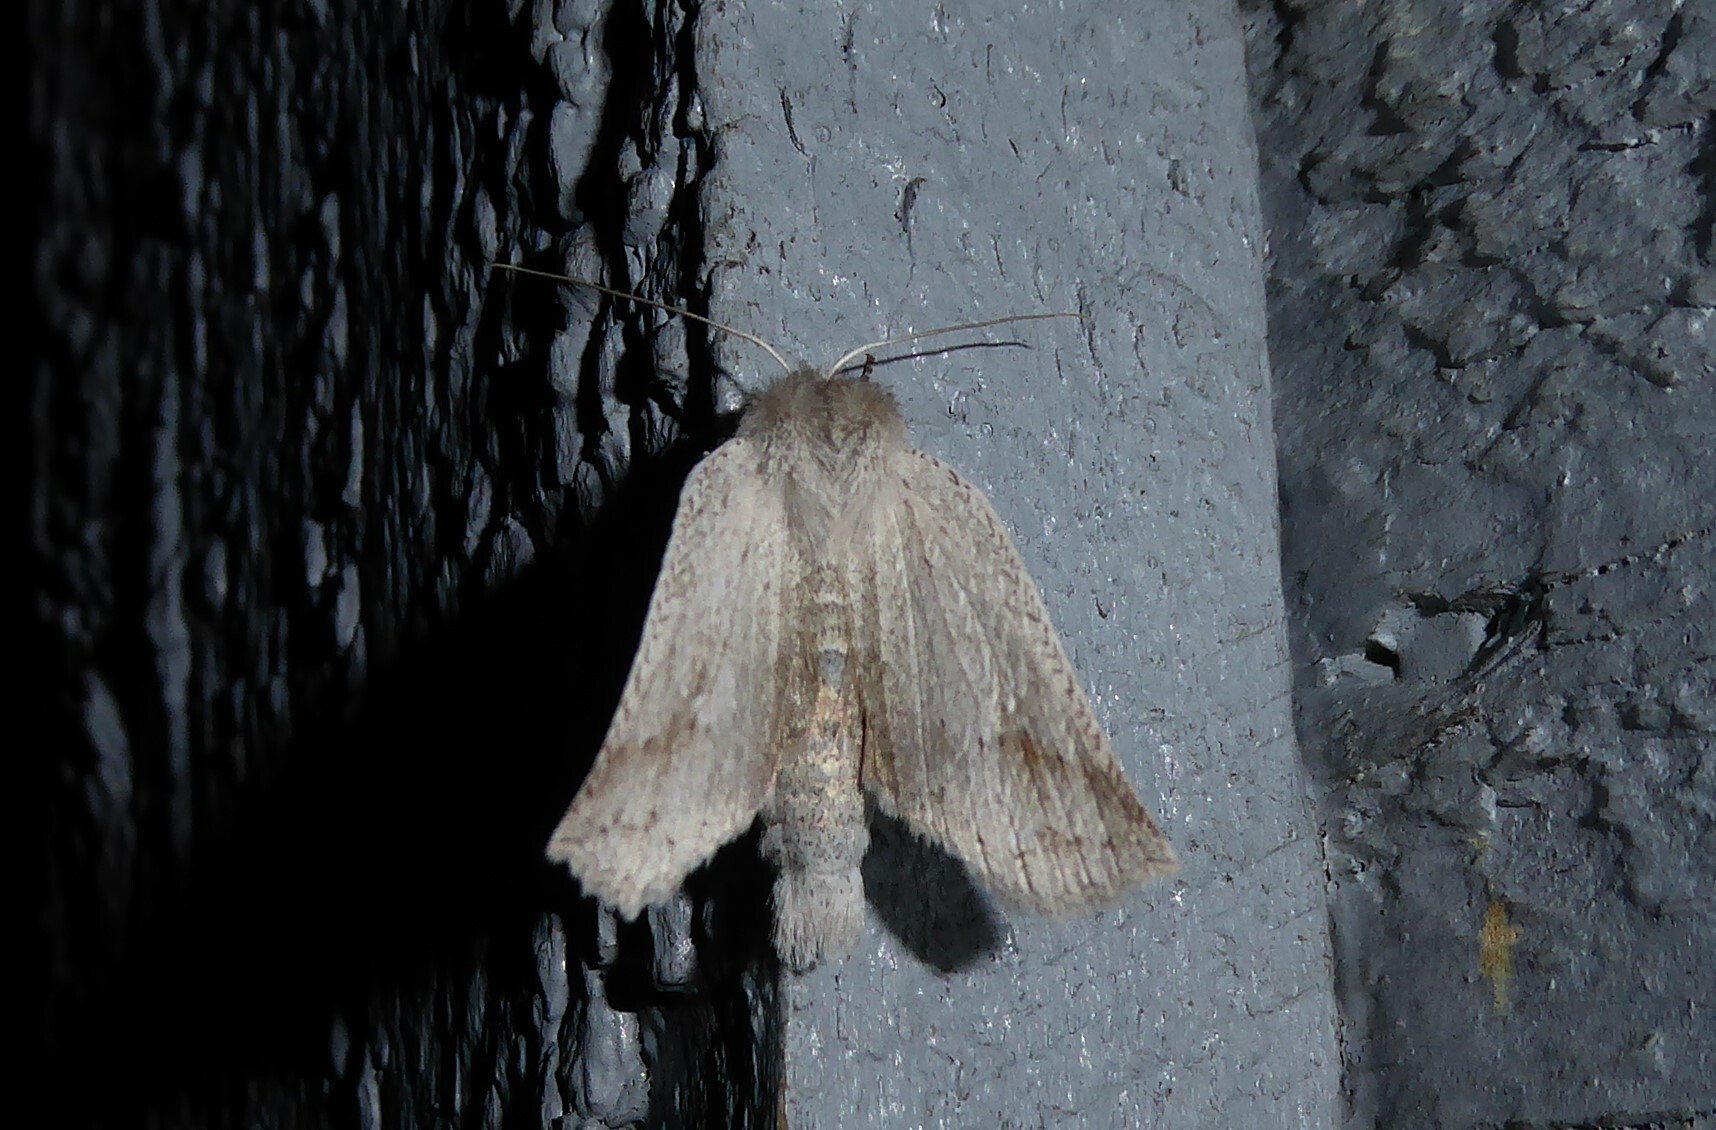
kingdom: Animalia
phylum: Arthropoda
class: Insecta
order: Lepidoptera
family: Geometridae
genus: Declana
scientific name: Declana leptomera
